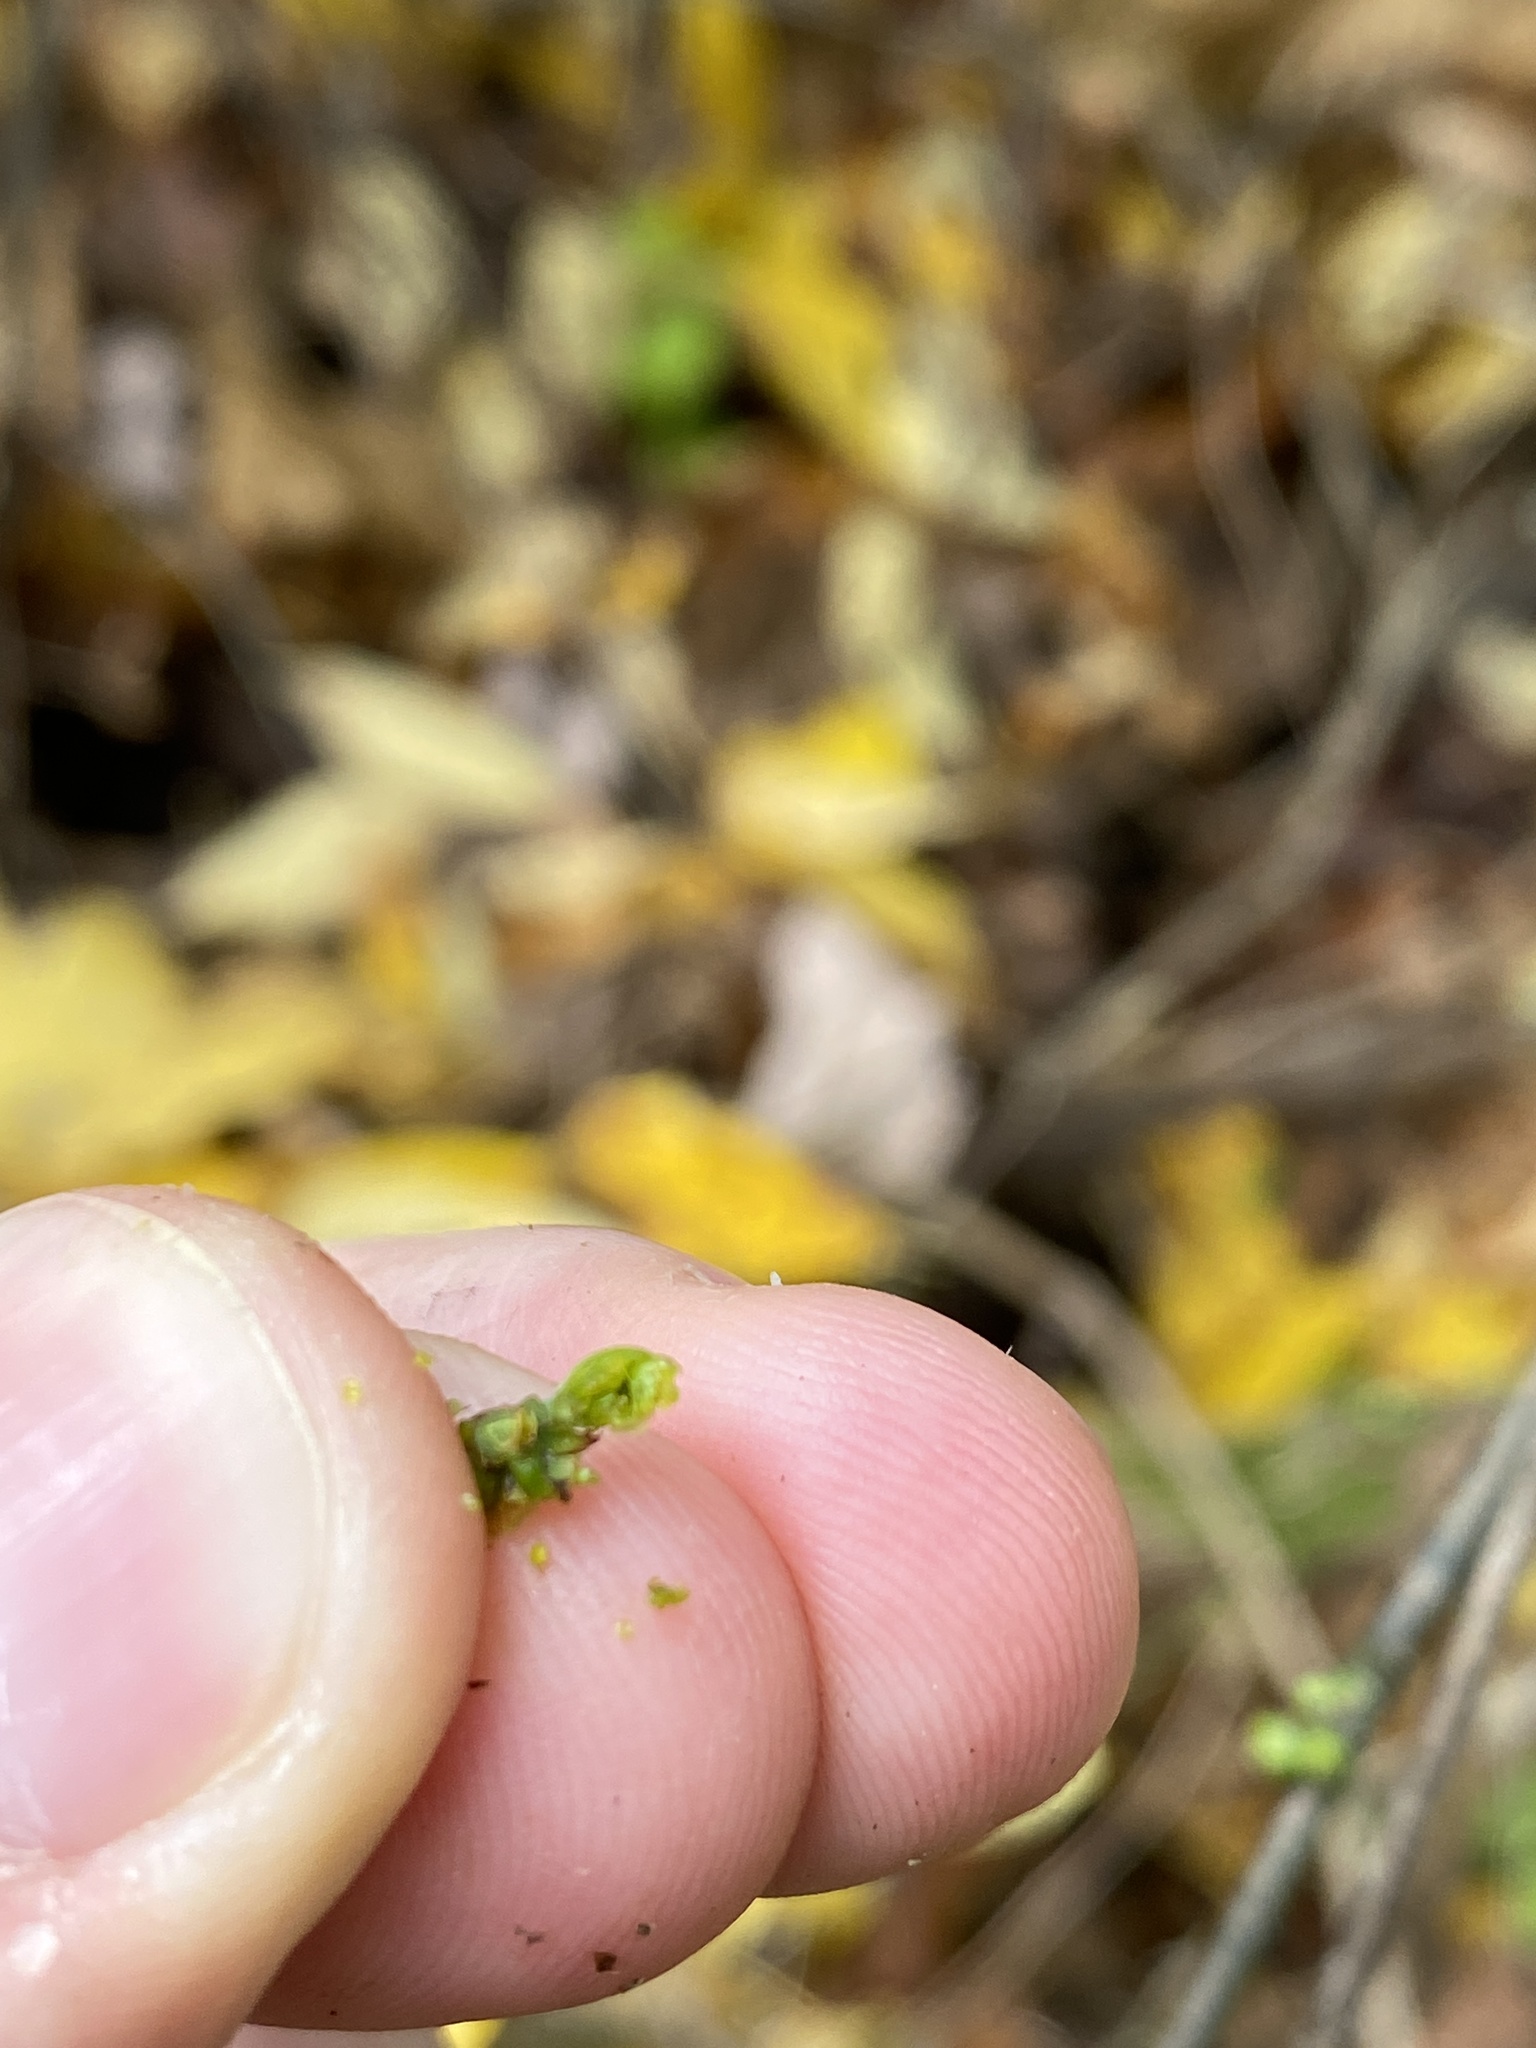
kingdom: Plantae
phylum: Tracheophyta
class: Magnoliopsida
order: Laurales
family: Lauraceae
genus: Lindera
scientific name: Lindera benzoin
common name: Spicebush
